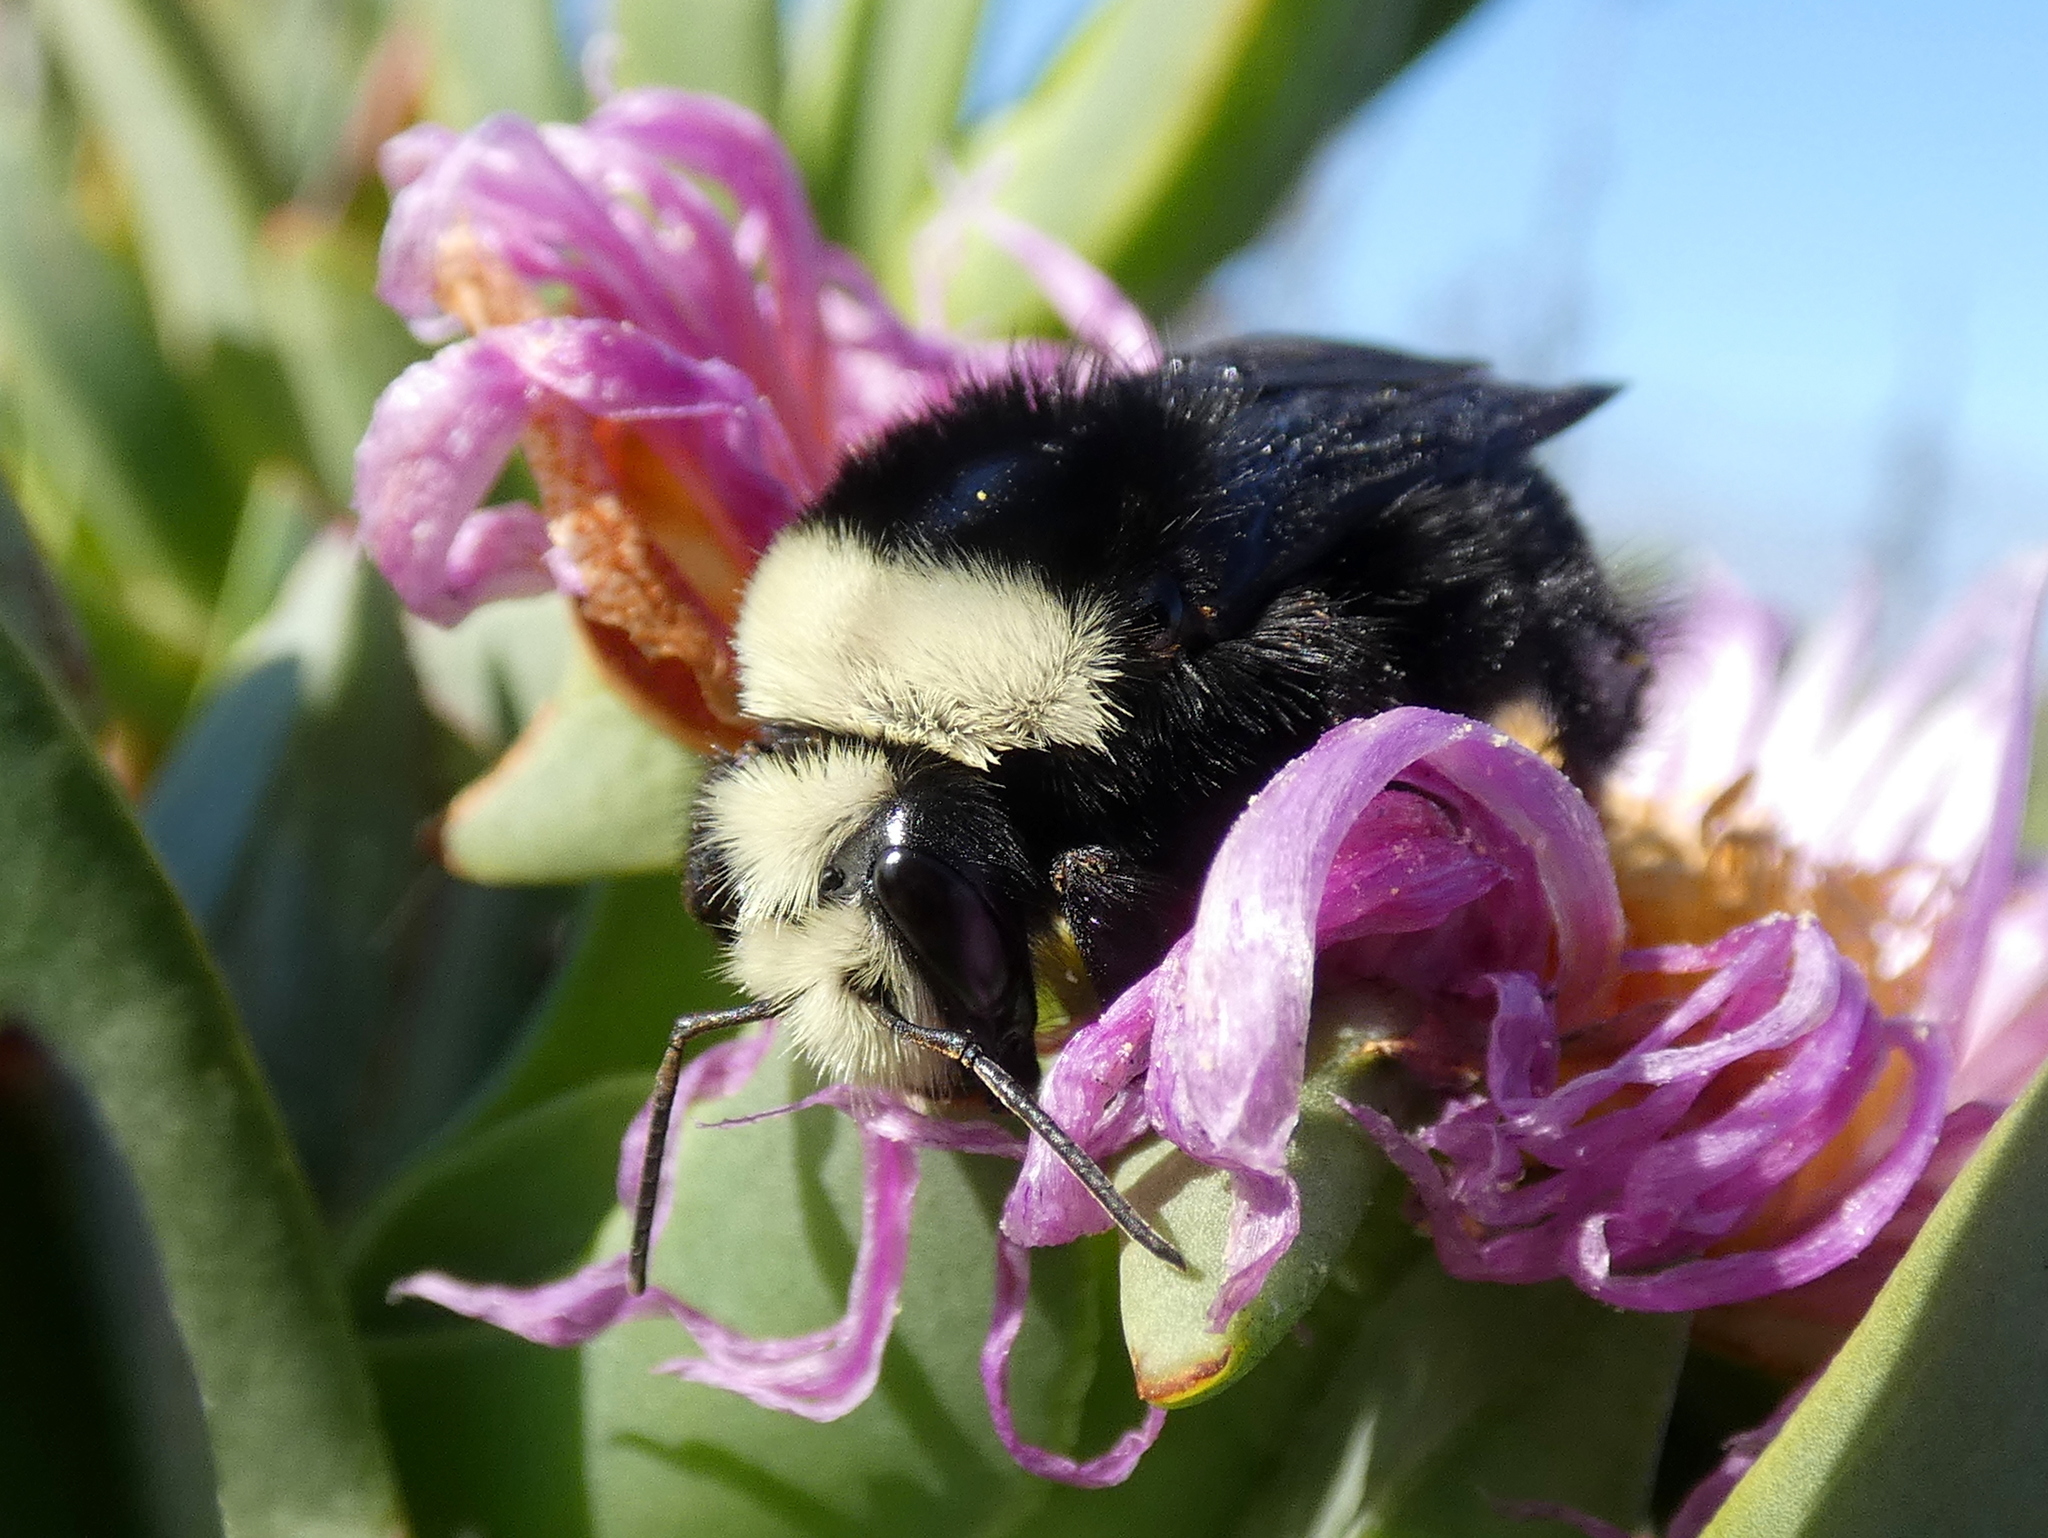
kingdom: Animalia
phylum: Arthropoda
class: Insecta
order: Hymenoptera
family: Apidae
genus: Pyrobombus
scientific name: Pyrobombus
